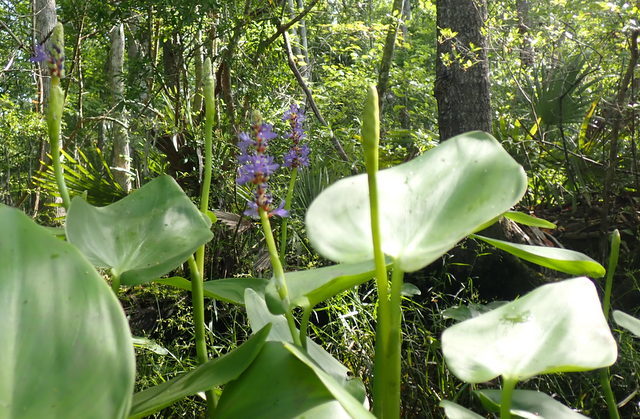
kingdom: Plantae
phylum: Tracheophyta
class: Liliopsida
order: Commelinales
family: Pontederiaceae
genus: Pontederia
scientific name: Pontederia cordata
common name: Pickerelweed
